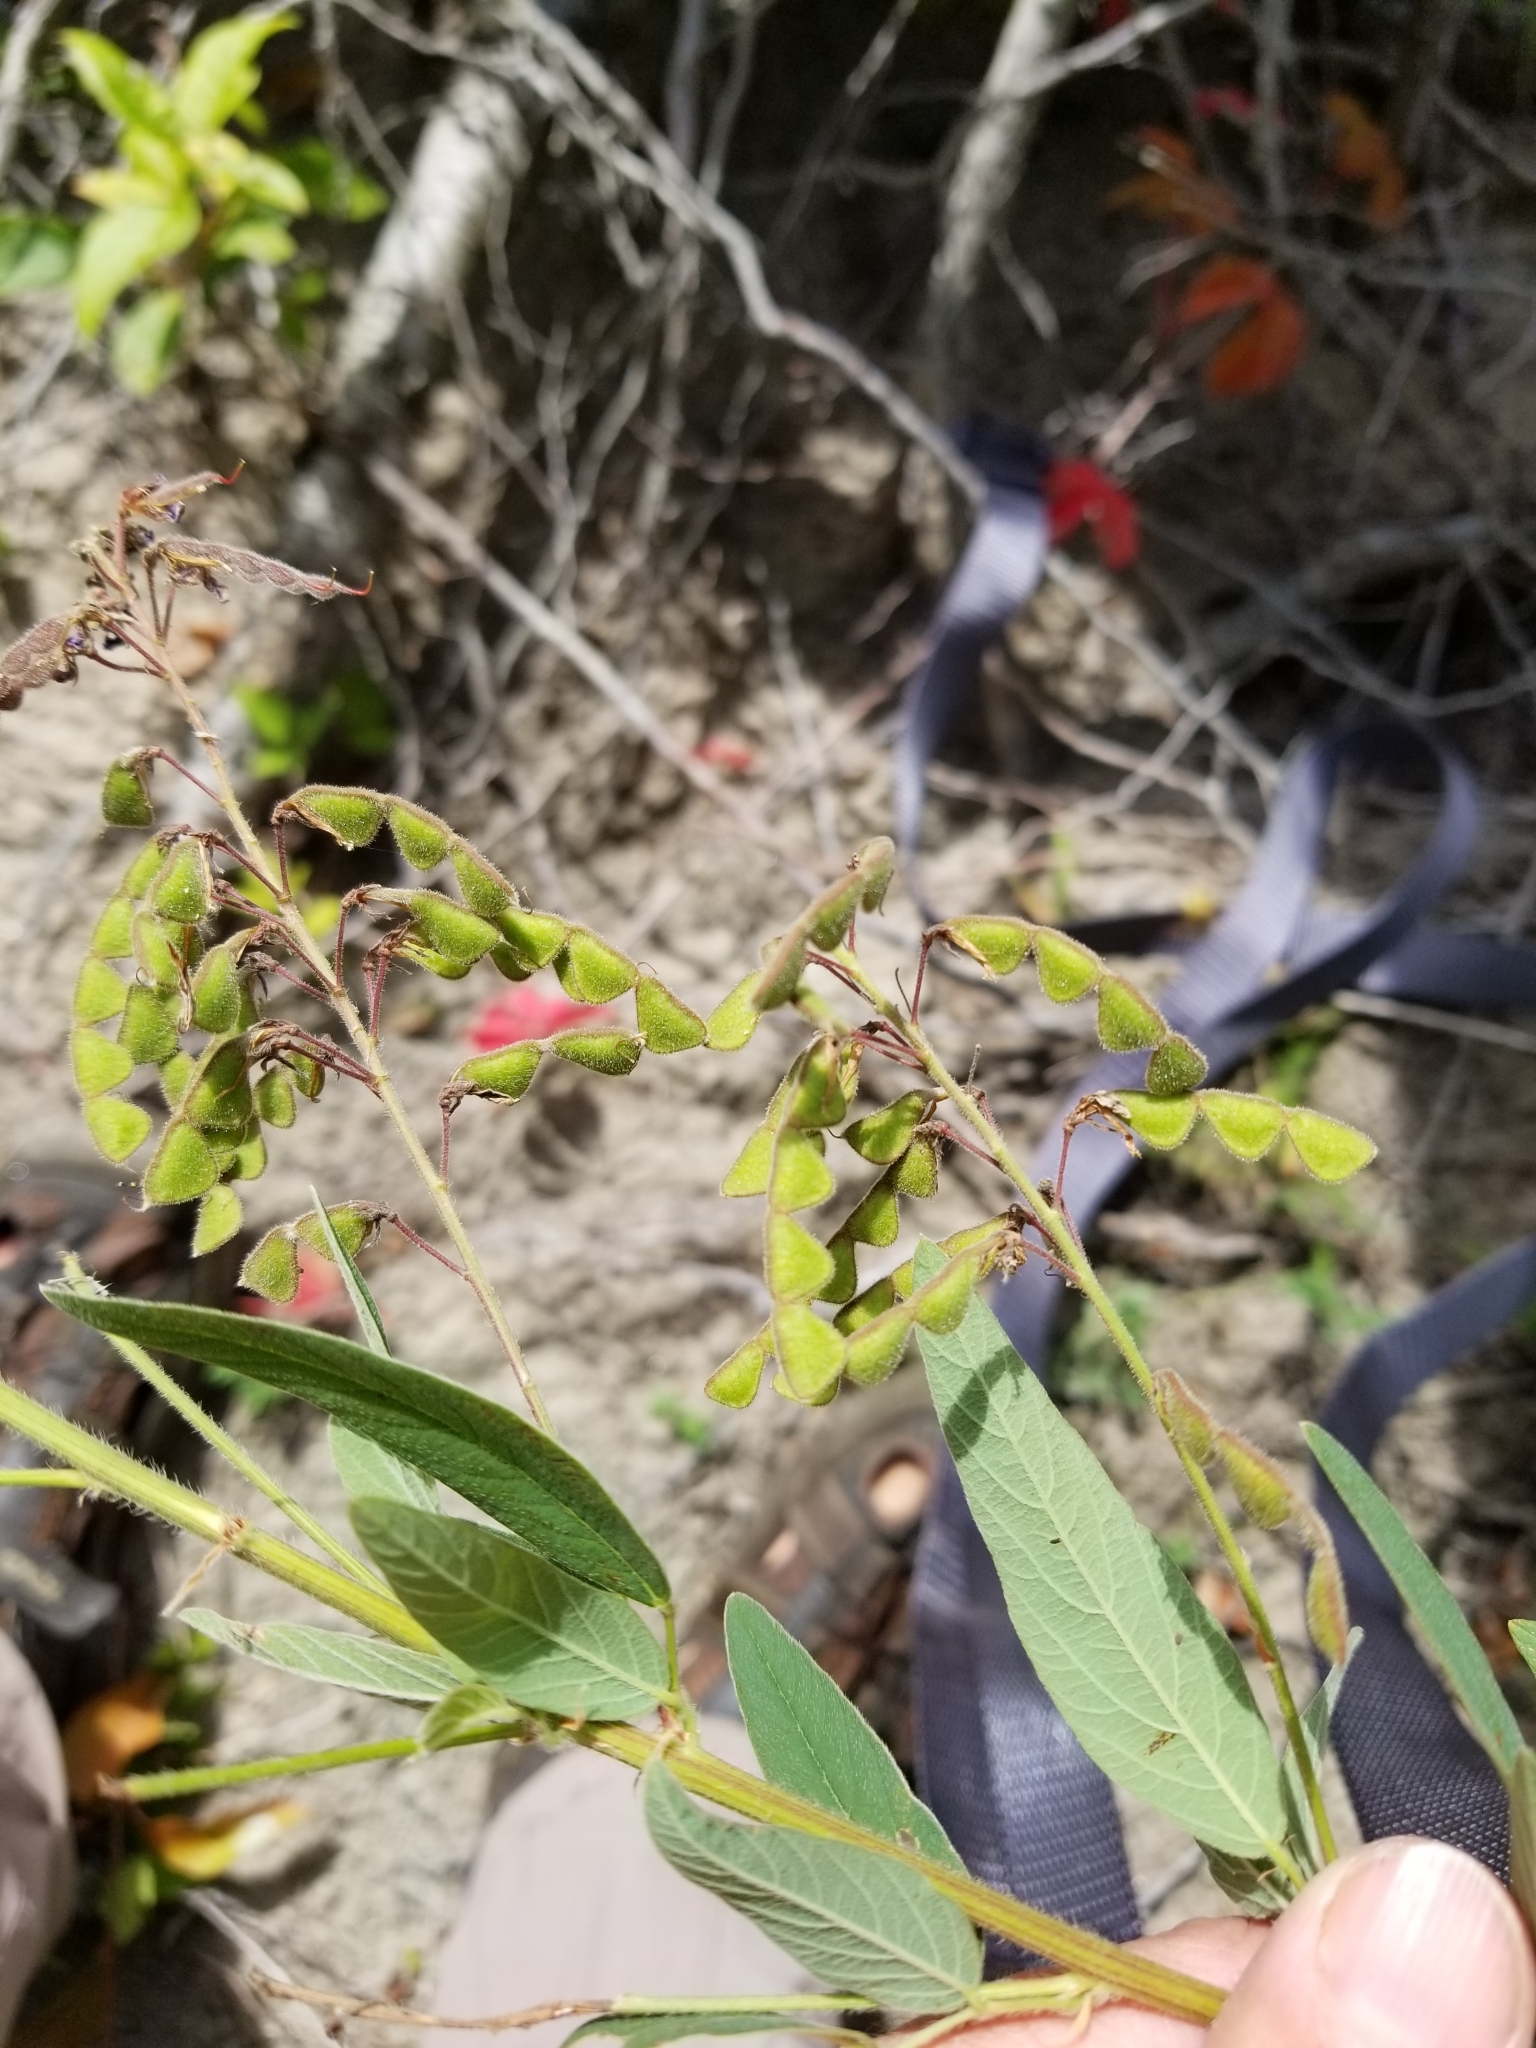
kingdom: Plantae
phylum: Tracheophyta
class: Magnoliopsida
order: Fabales
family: Fabaceae
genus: Desmodium
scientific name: Desmodium canadense
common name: Canada tick-trefoil
